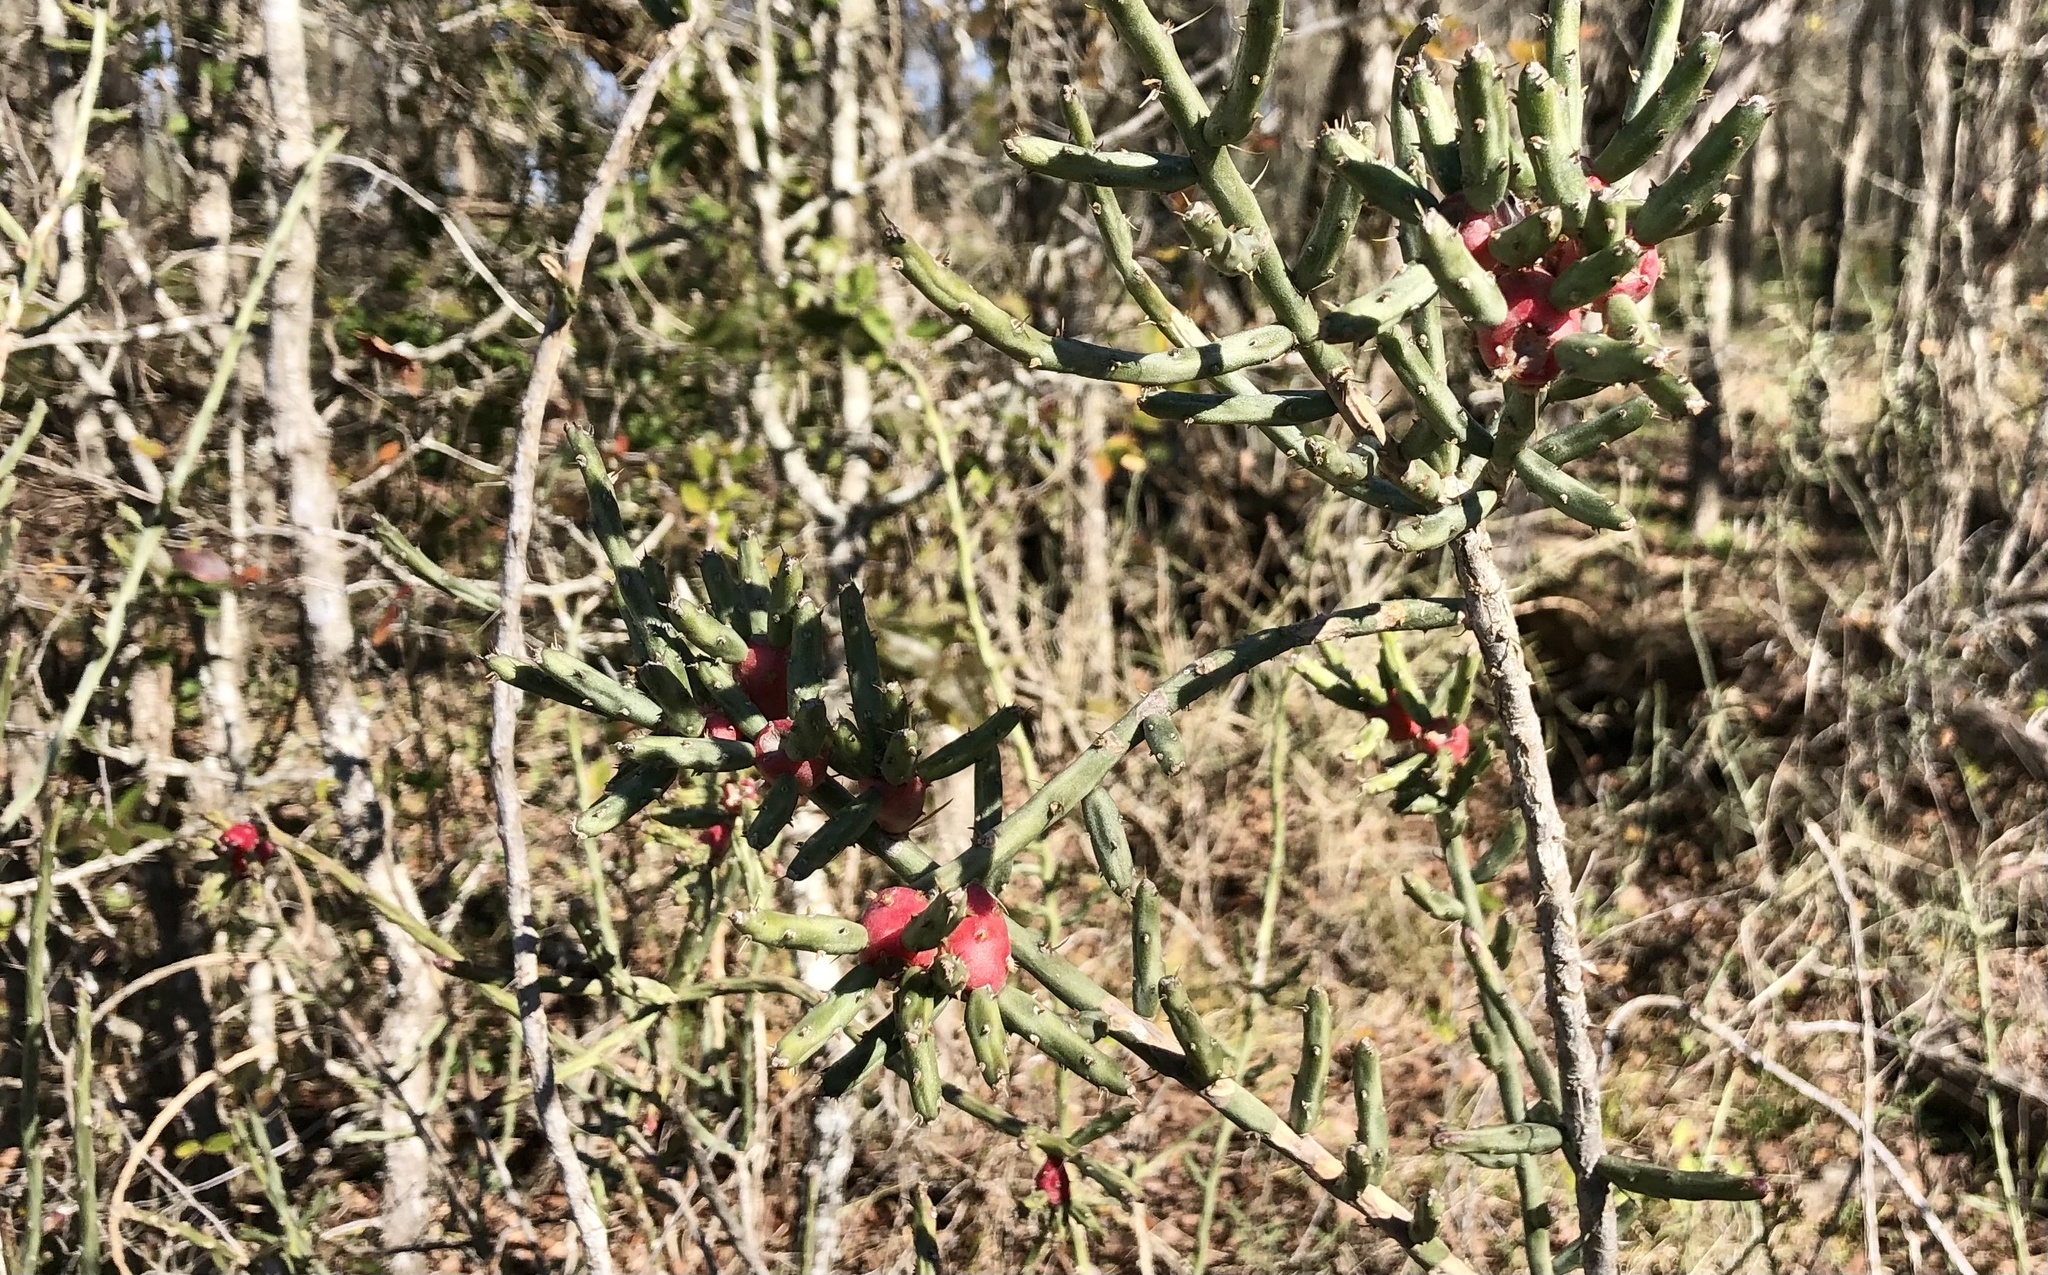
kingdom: Plantae
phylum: Tracheophyta
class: Magnoliopsida
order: Caryophyllales
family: Cactaceae
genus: Cylindropuntia
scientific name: Cylindropuntia leptocaulis
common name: Christmas cactus
